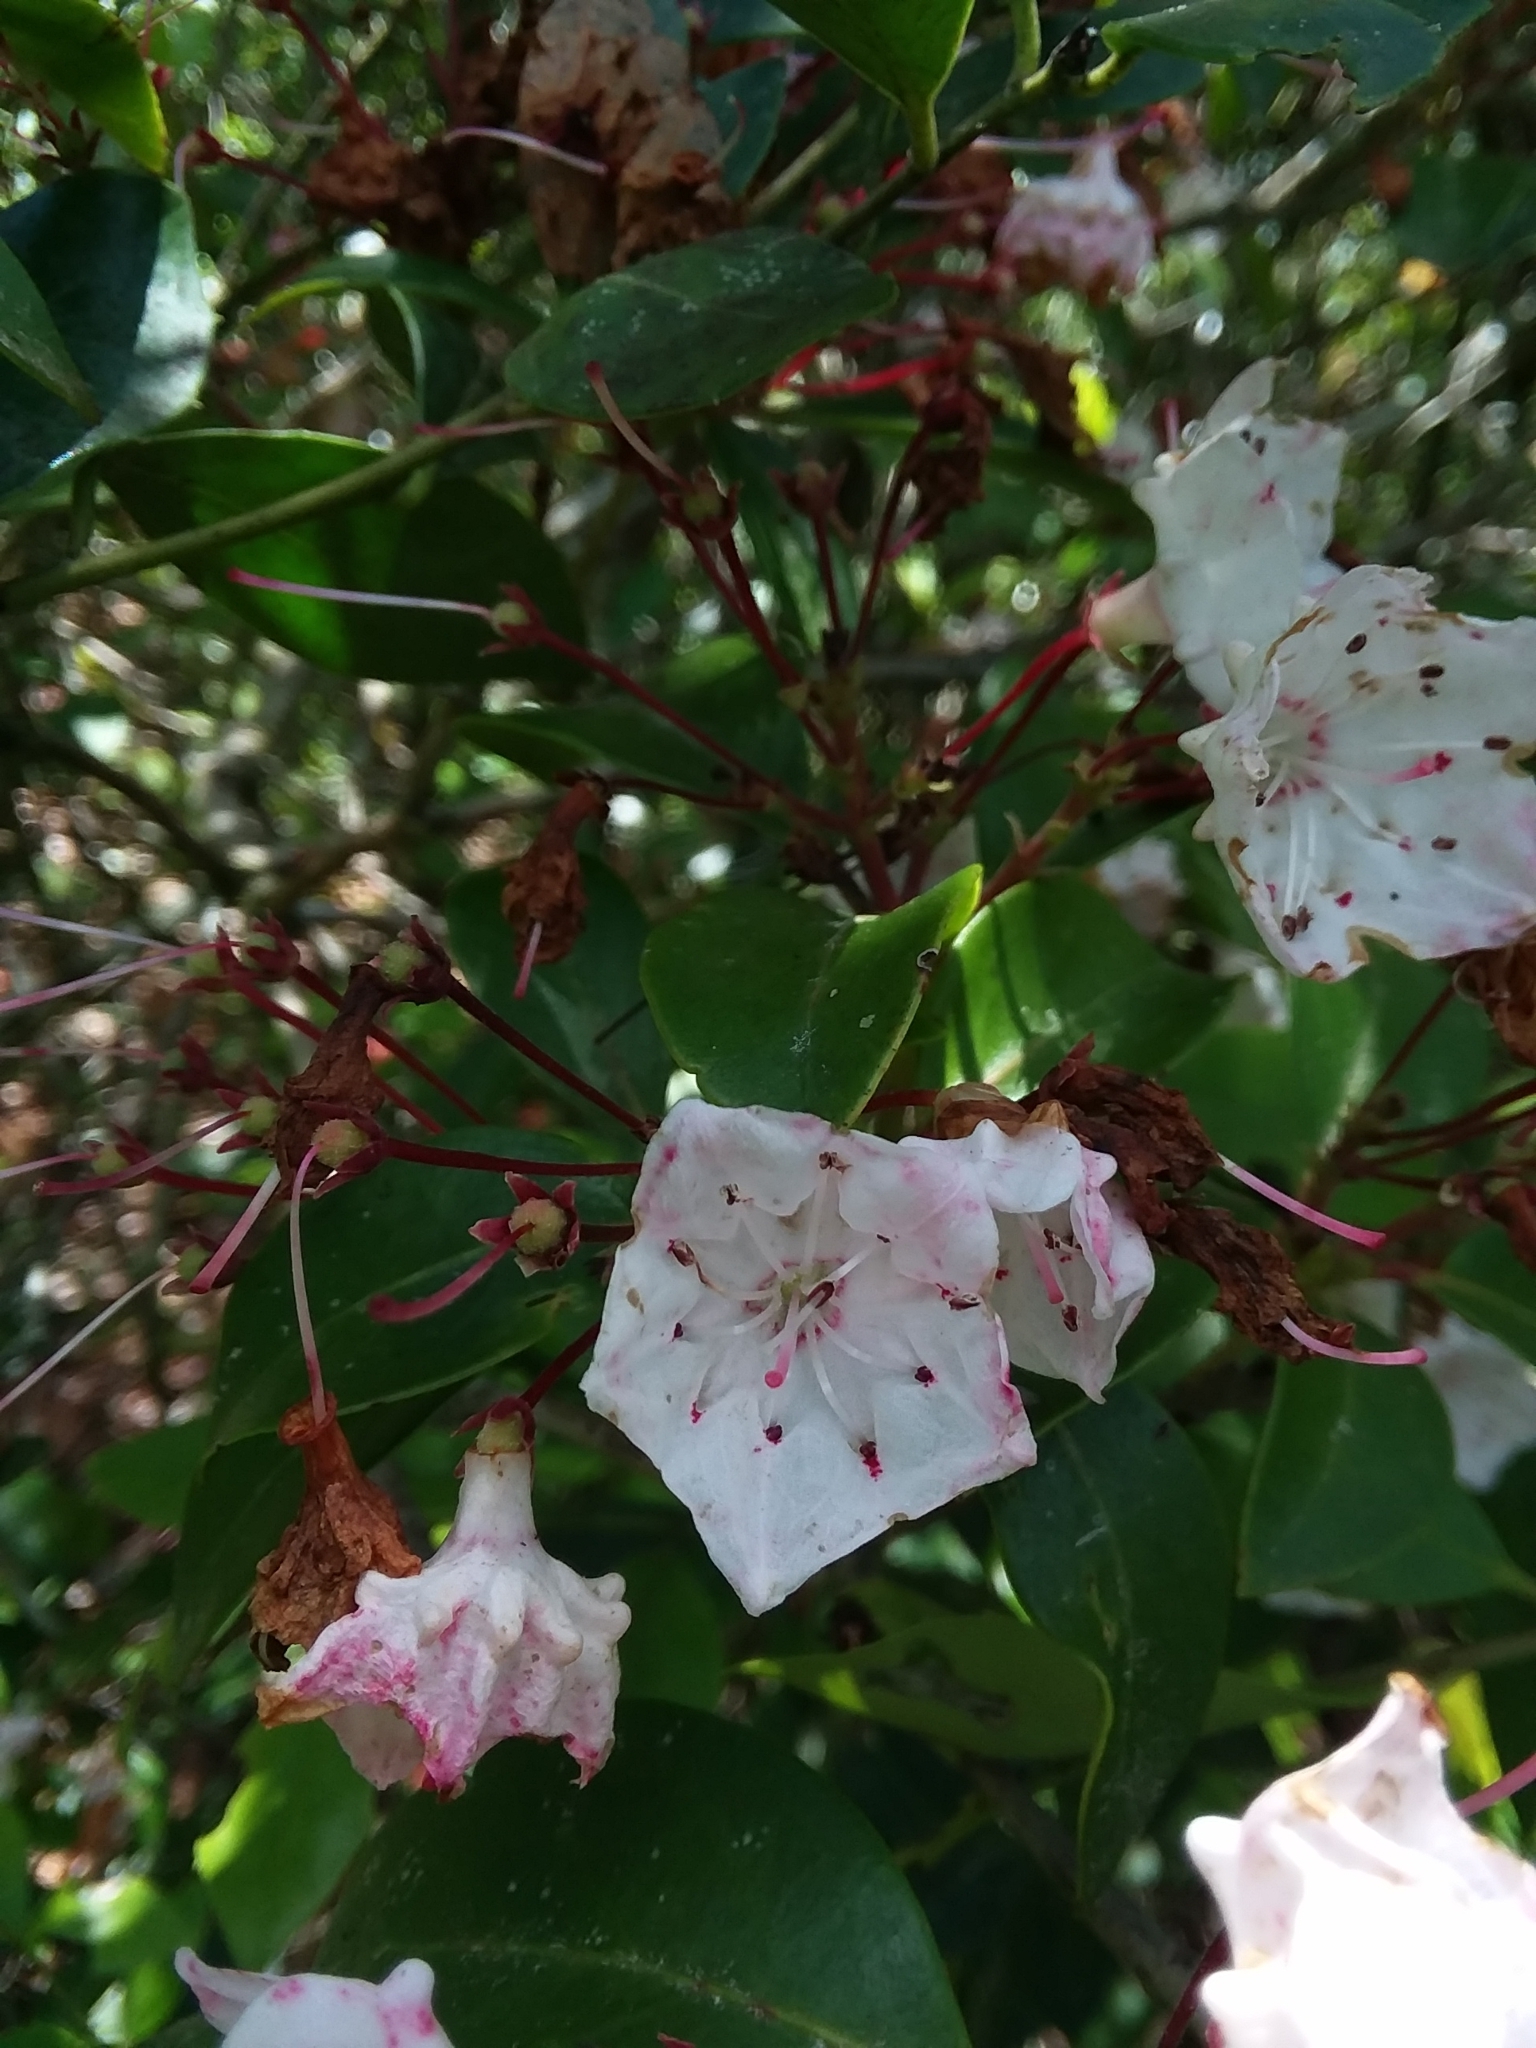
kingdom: Plantae
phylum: Tracheophyta
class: Magnoliopsida
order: Ericales
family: Ericaceae
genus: Kalmia
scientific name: Kalmia latifolia
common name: Mountain-laurel
